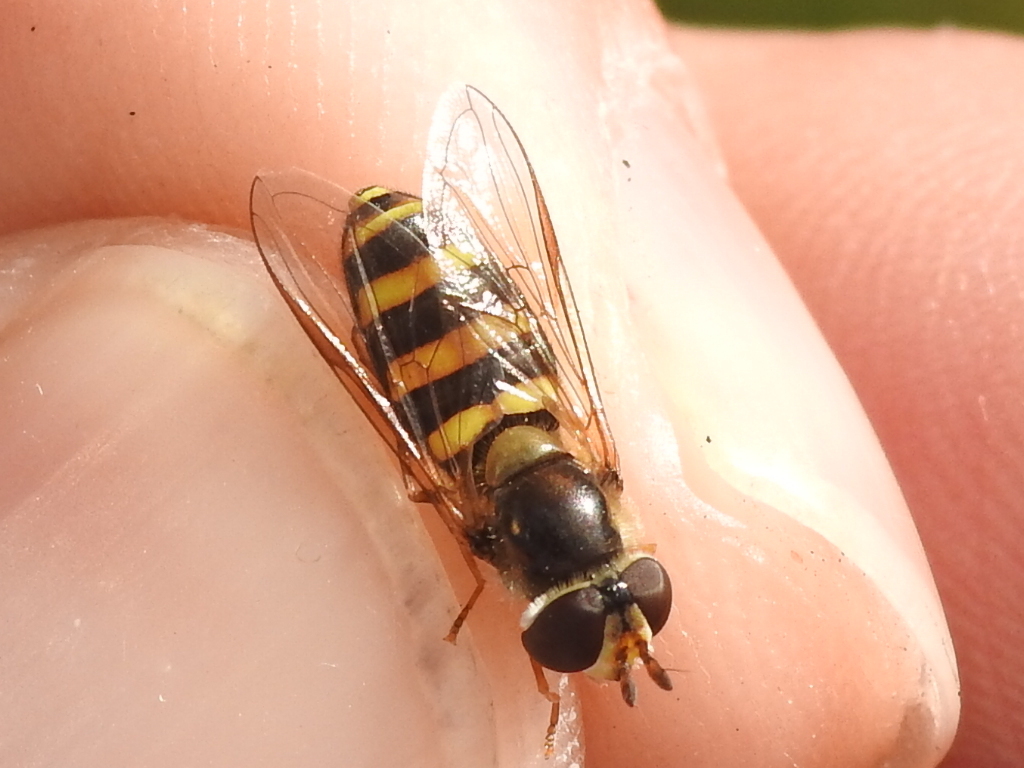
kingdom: Animalia
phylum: Arthropoda
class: Insecta
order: Diptera
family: Syrphidae
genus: Eupeodes
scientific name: Eupeodes
